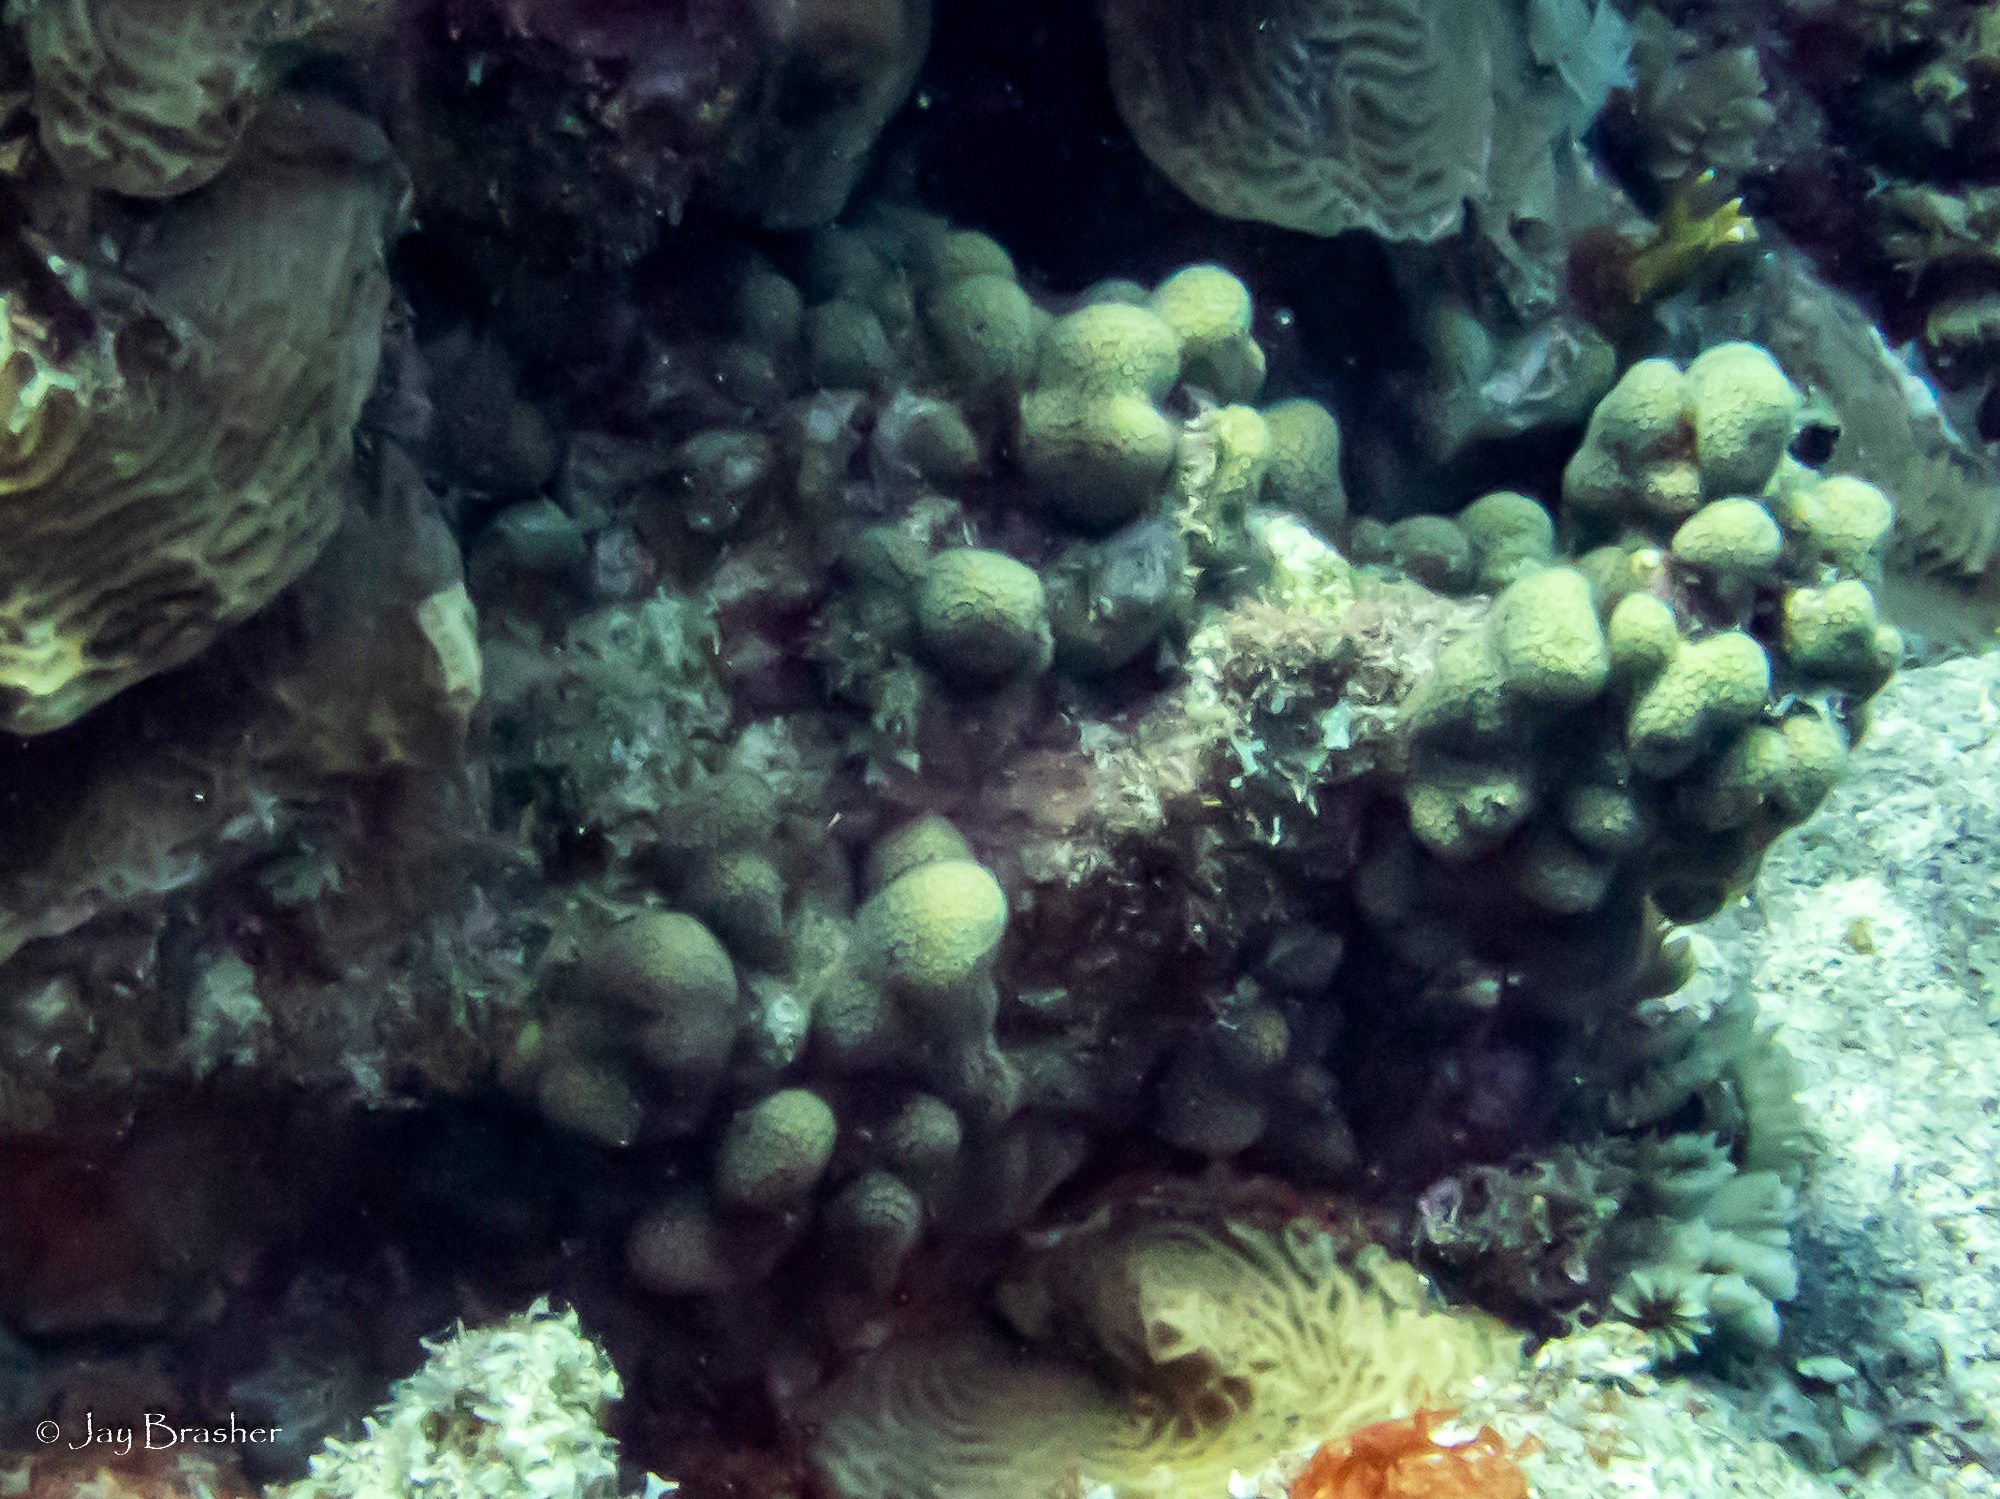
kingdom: Animalia
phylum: Cnidaria
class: Anthozoa
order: Scleractinia
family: Pocilloporidae
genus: Madracis
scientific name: Madracis decactis
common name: Ten-ray star coral
